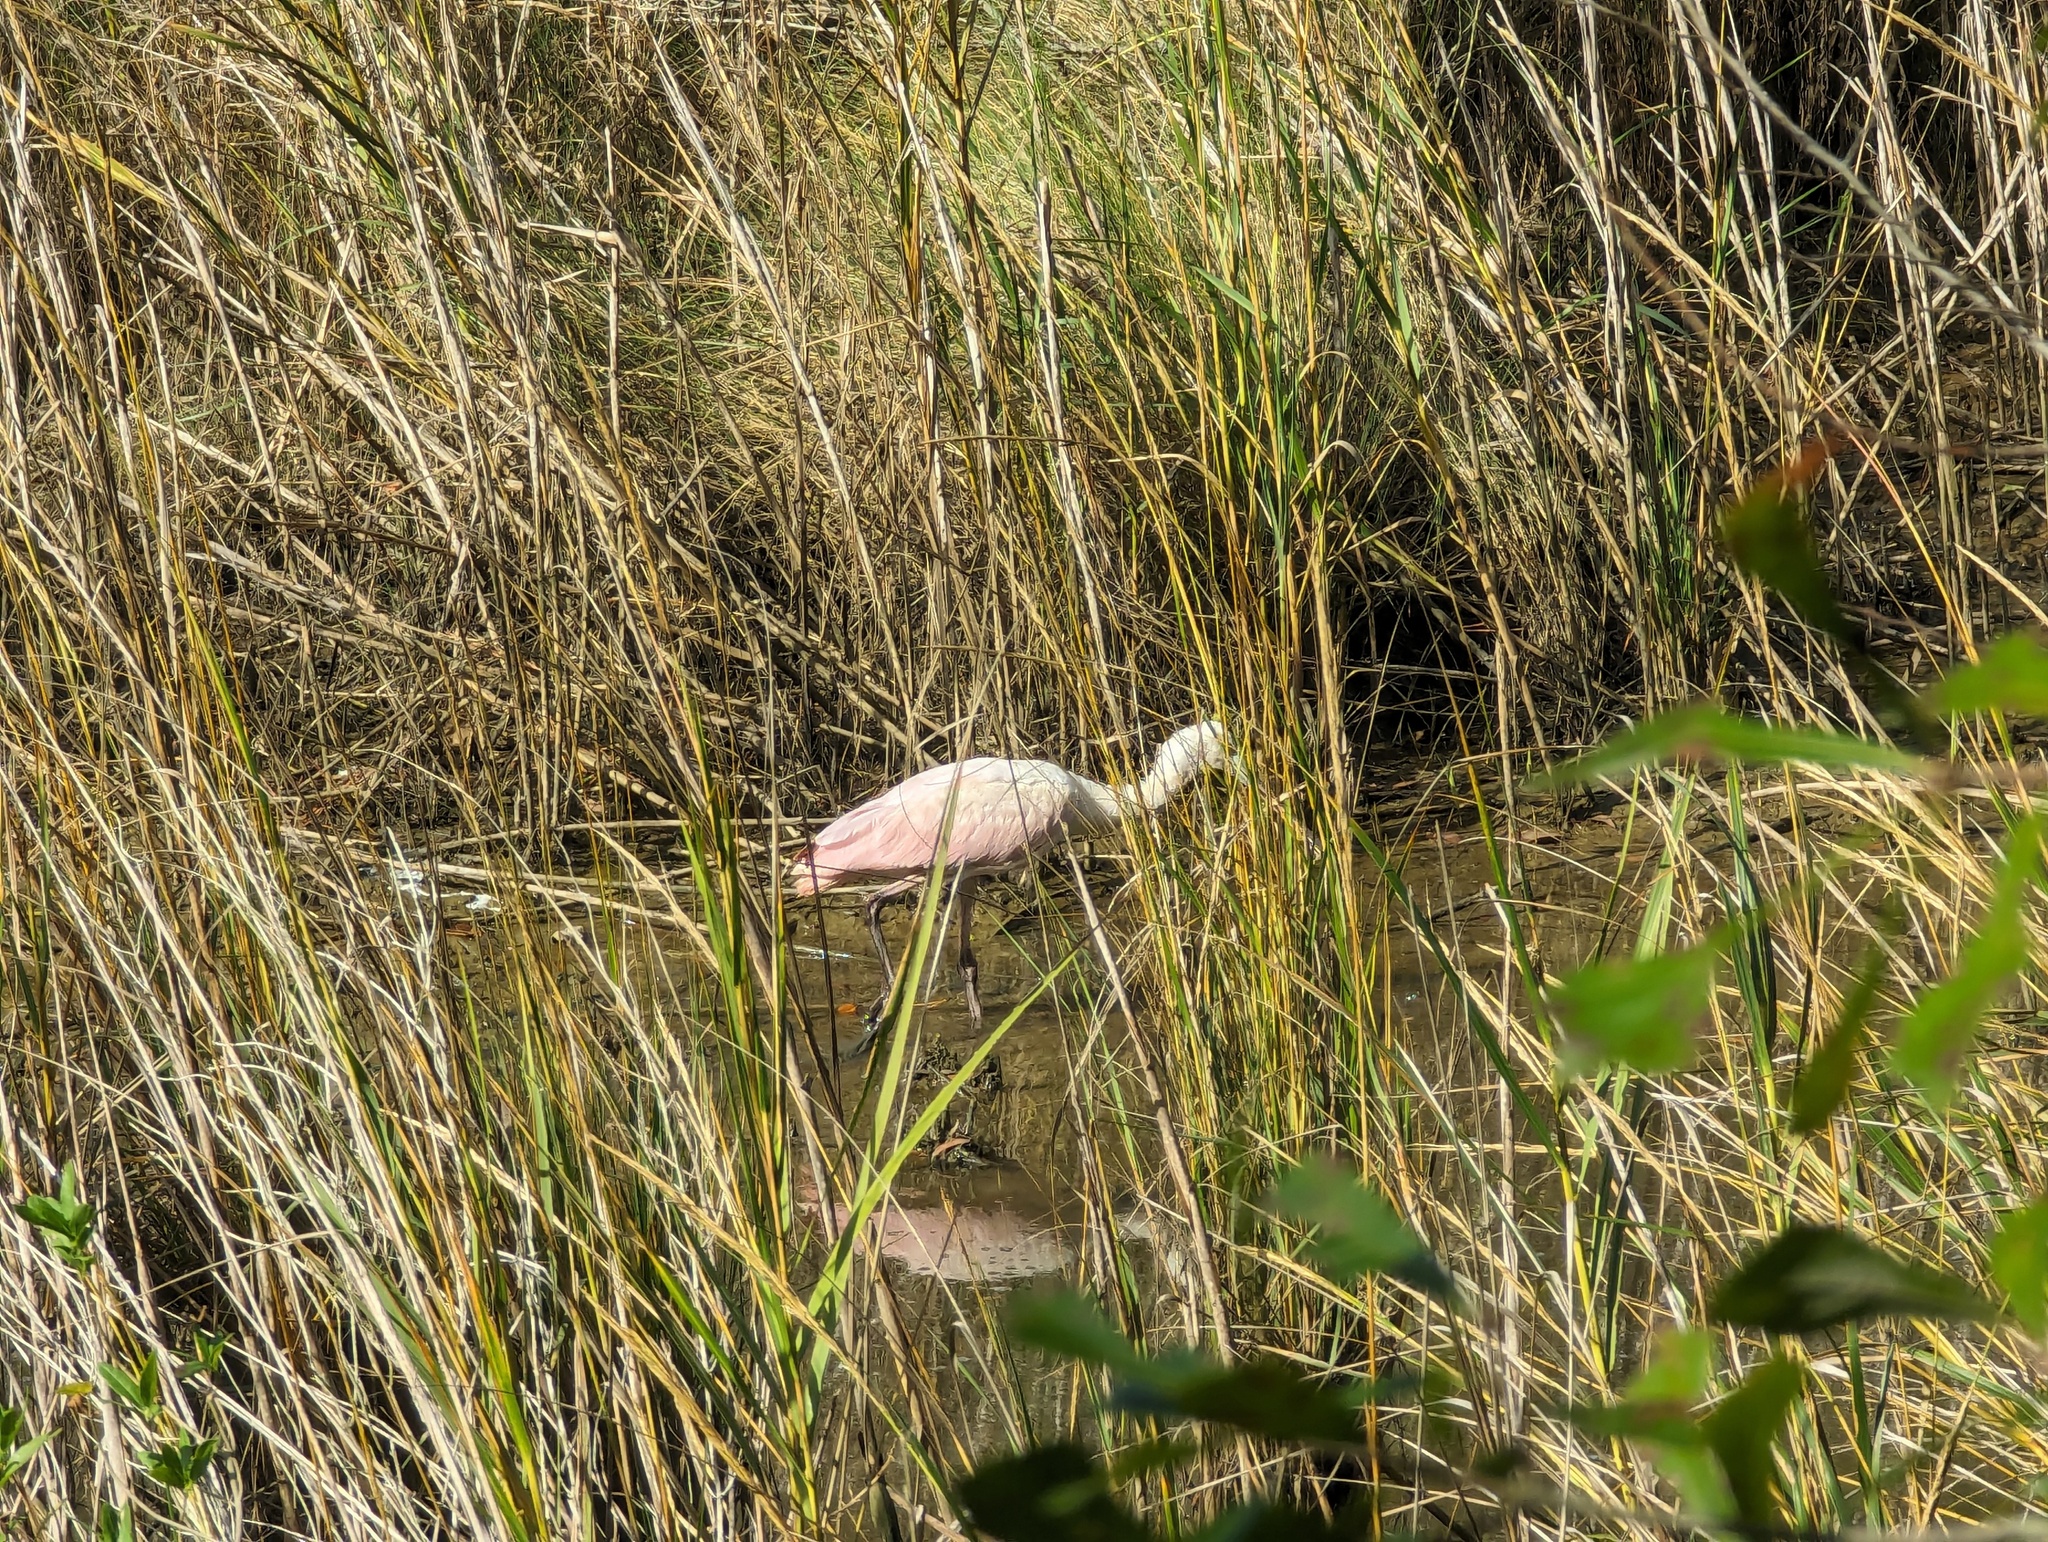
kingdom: Animalia
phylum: Chordata
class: Aves
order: Pelecaniformes
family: Threskiornithidae
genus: Platalea
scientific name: Platalea ajaja
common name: Roseate spoonbill
